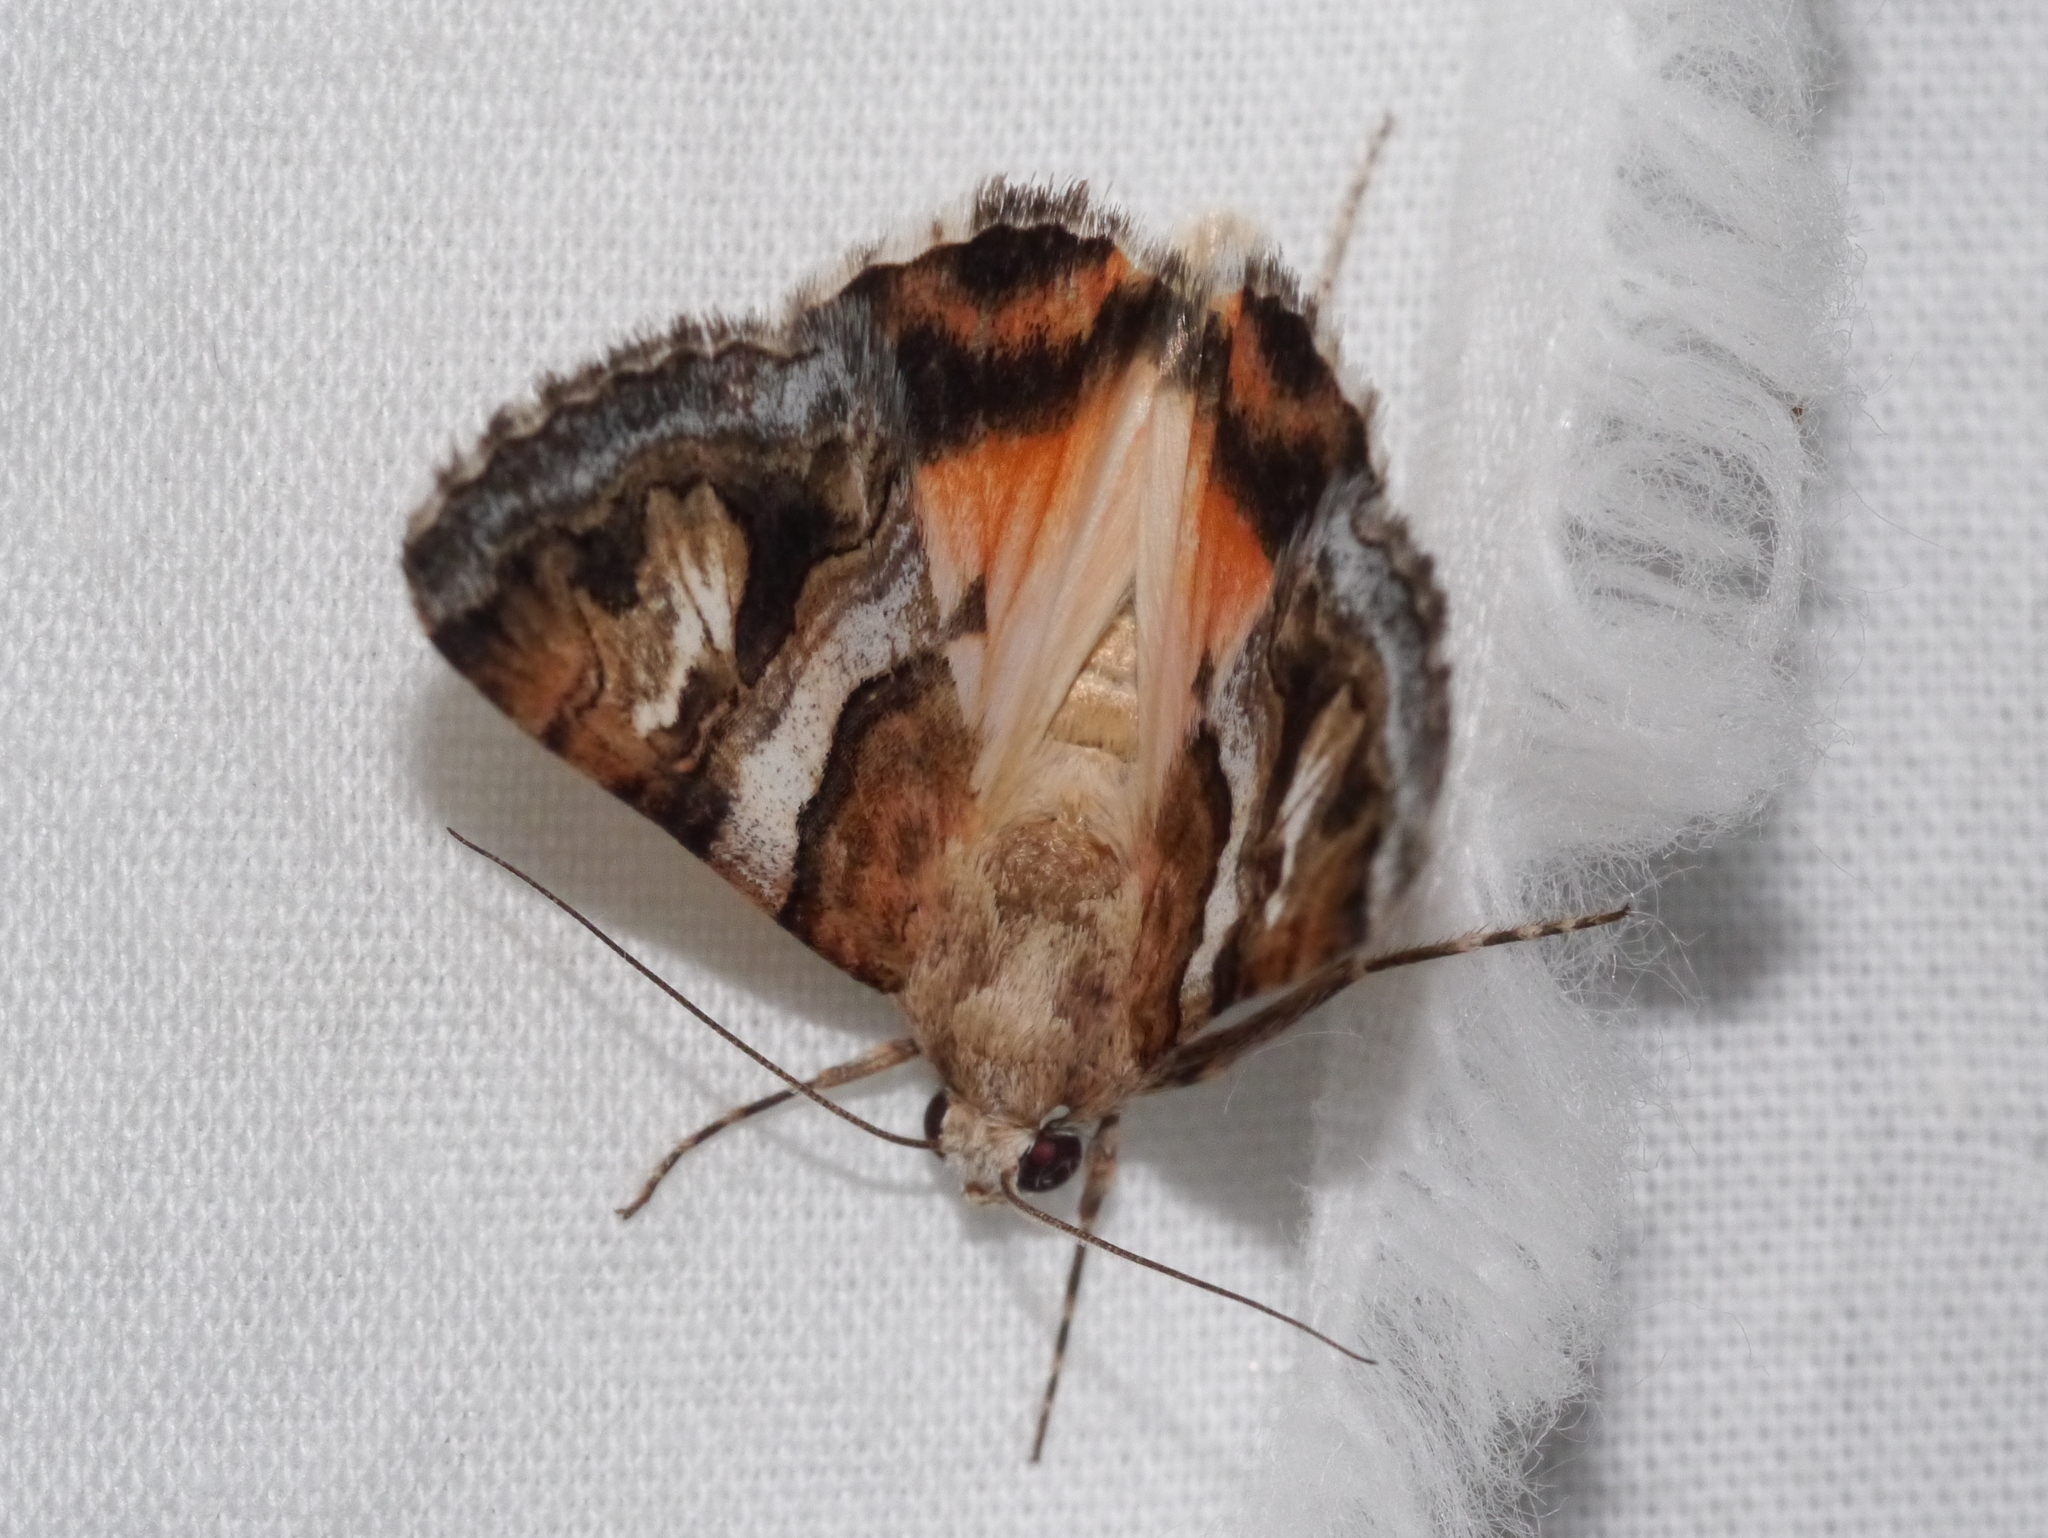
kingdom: Animalia
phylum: Arthropoda
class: Insecta
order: Lepidoptera
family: Erebidae
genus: Drasteria
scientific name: Drasteria howlandii
